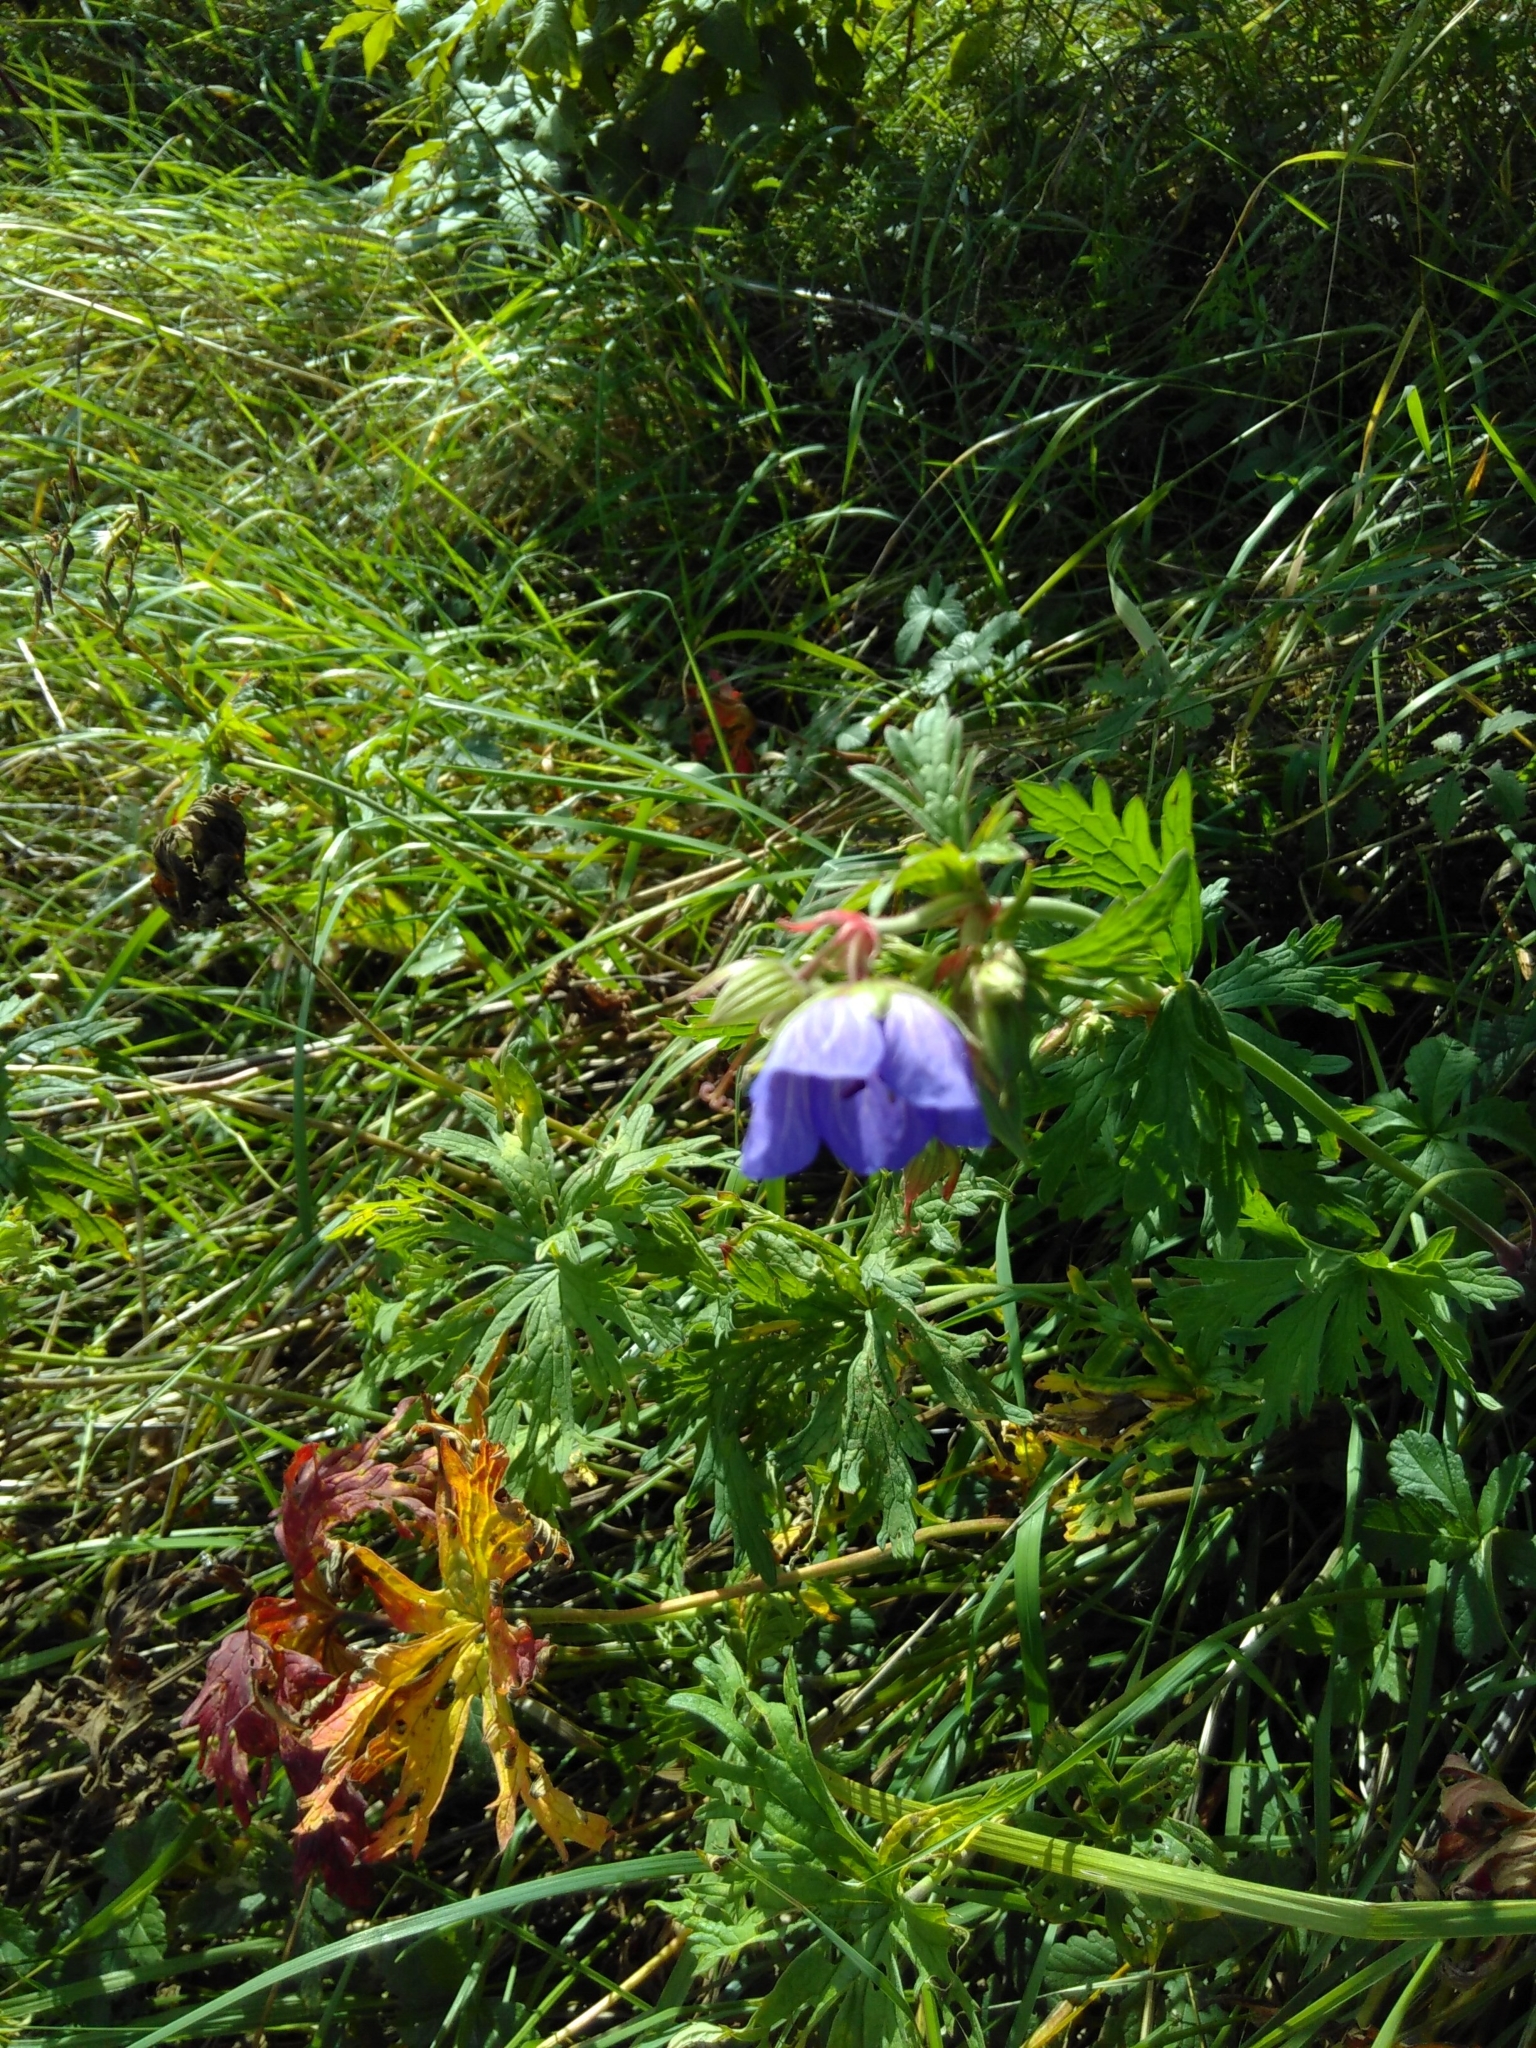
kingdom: Plantae
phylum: Tracheophyta
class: Magnoliopsida
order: Geraniales
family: Geraniaceae
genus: Geranium
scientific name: Geranium pratense
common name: Meadow crane's-bill
